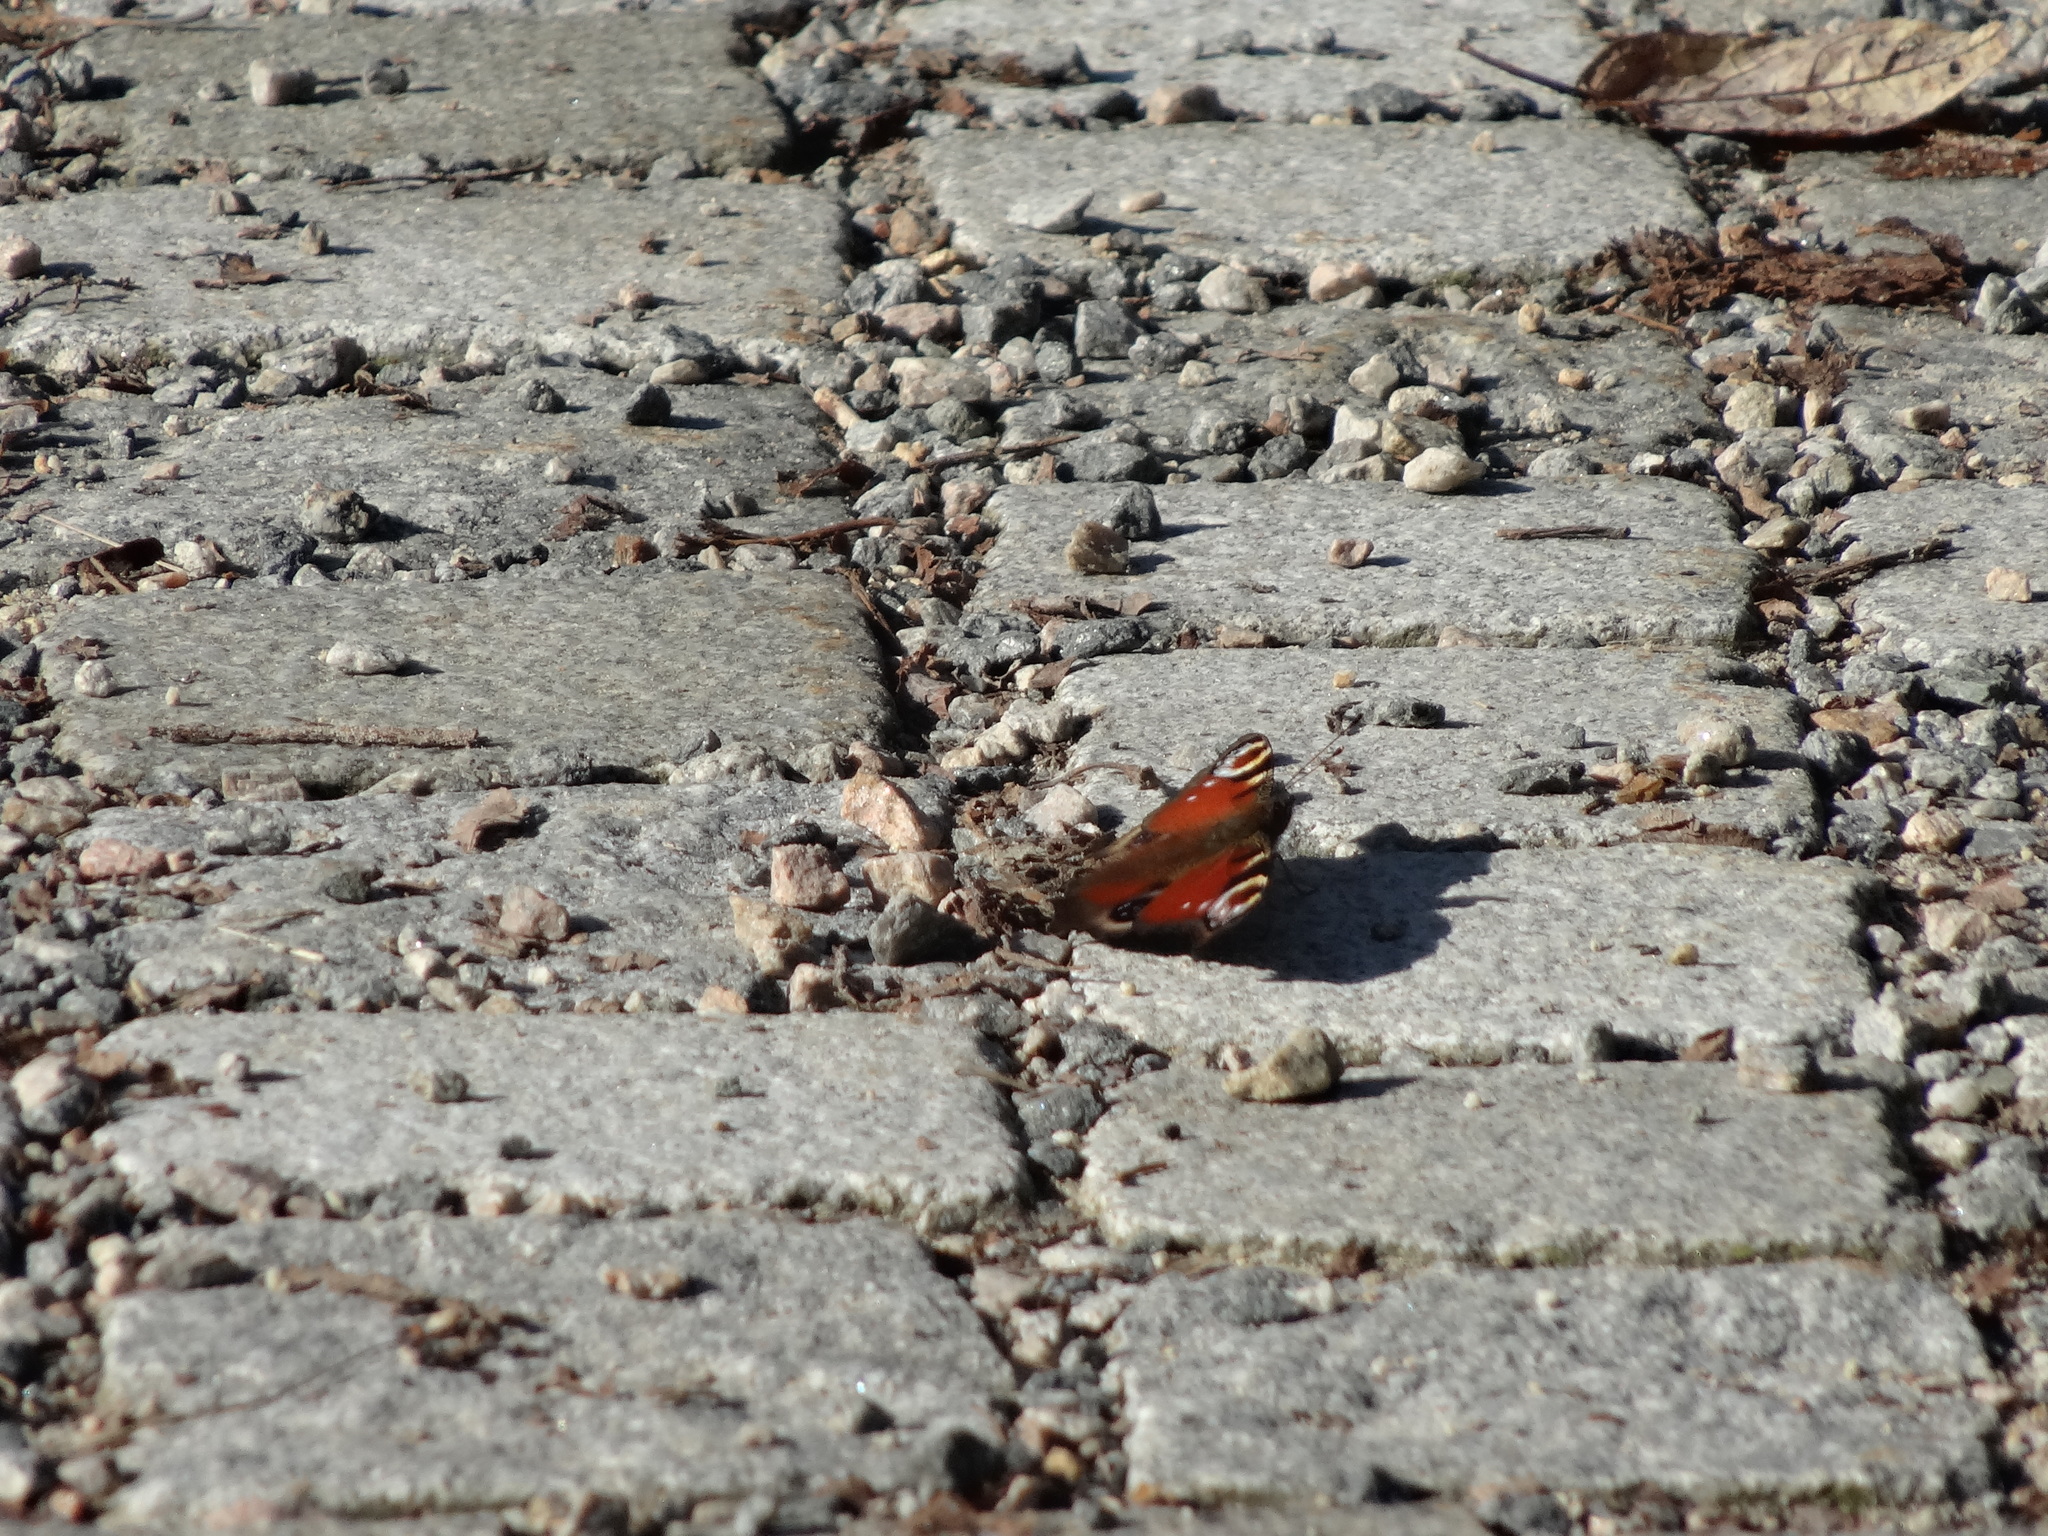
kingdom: Animalia
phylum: Arthropoda
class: Insecta
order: Lepidoptera
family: Nymphalidae
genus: Aglais
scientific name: Aglais io
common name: Peacock
